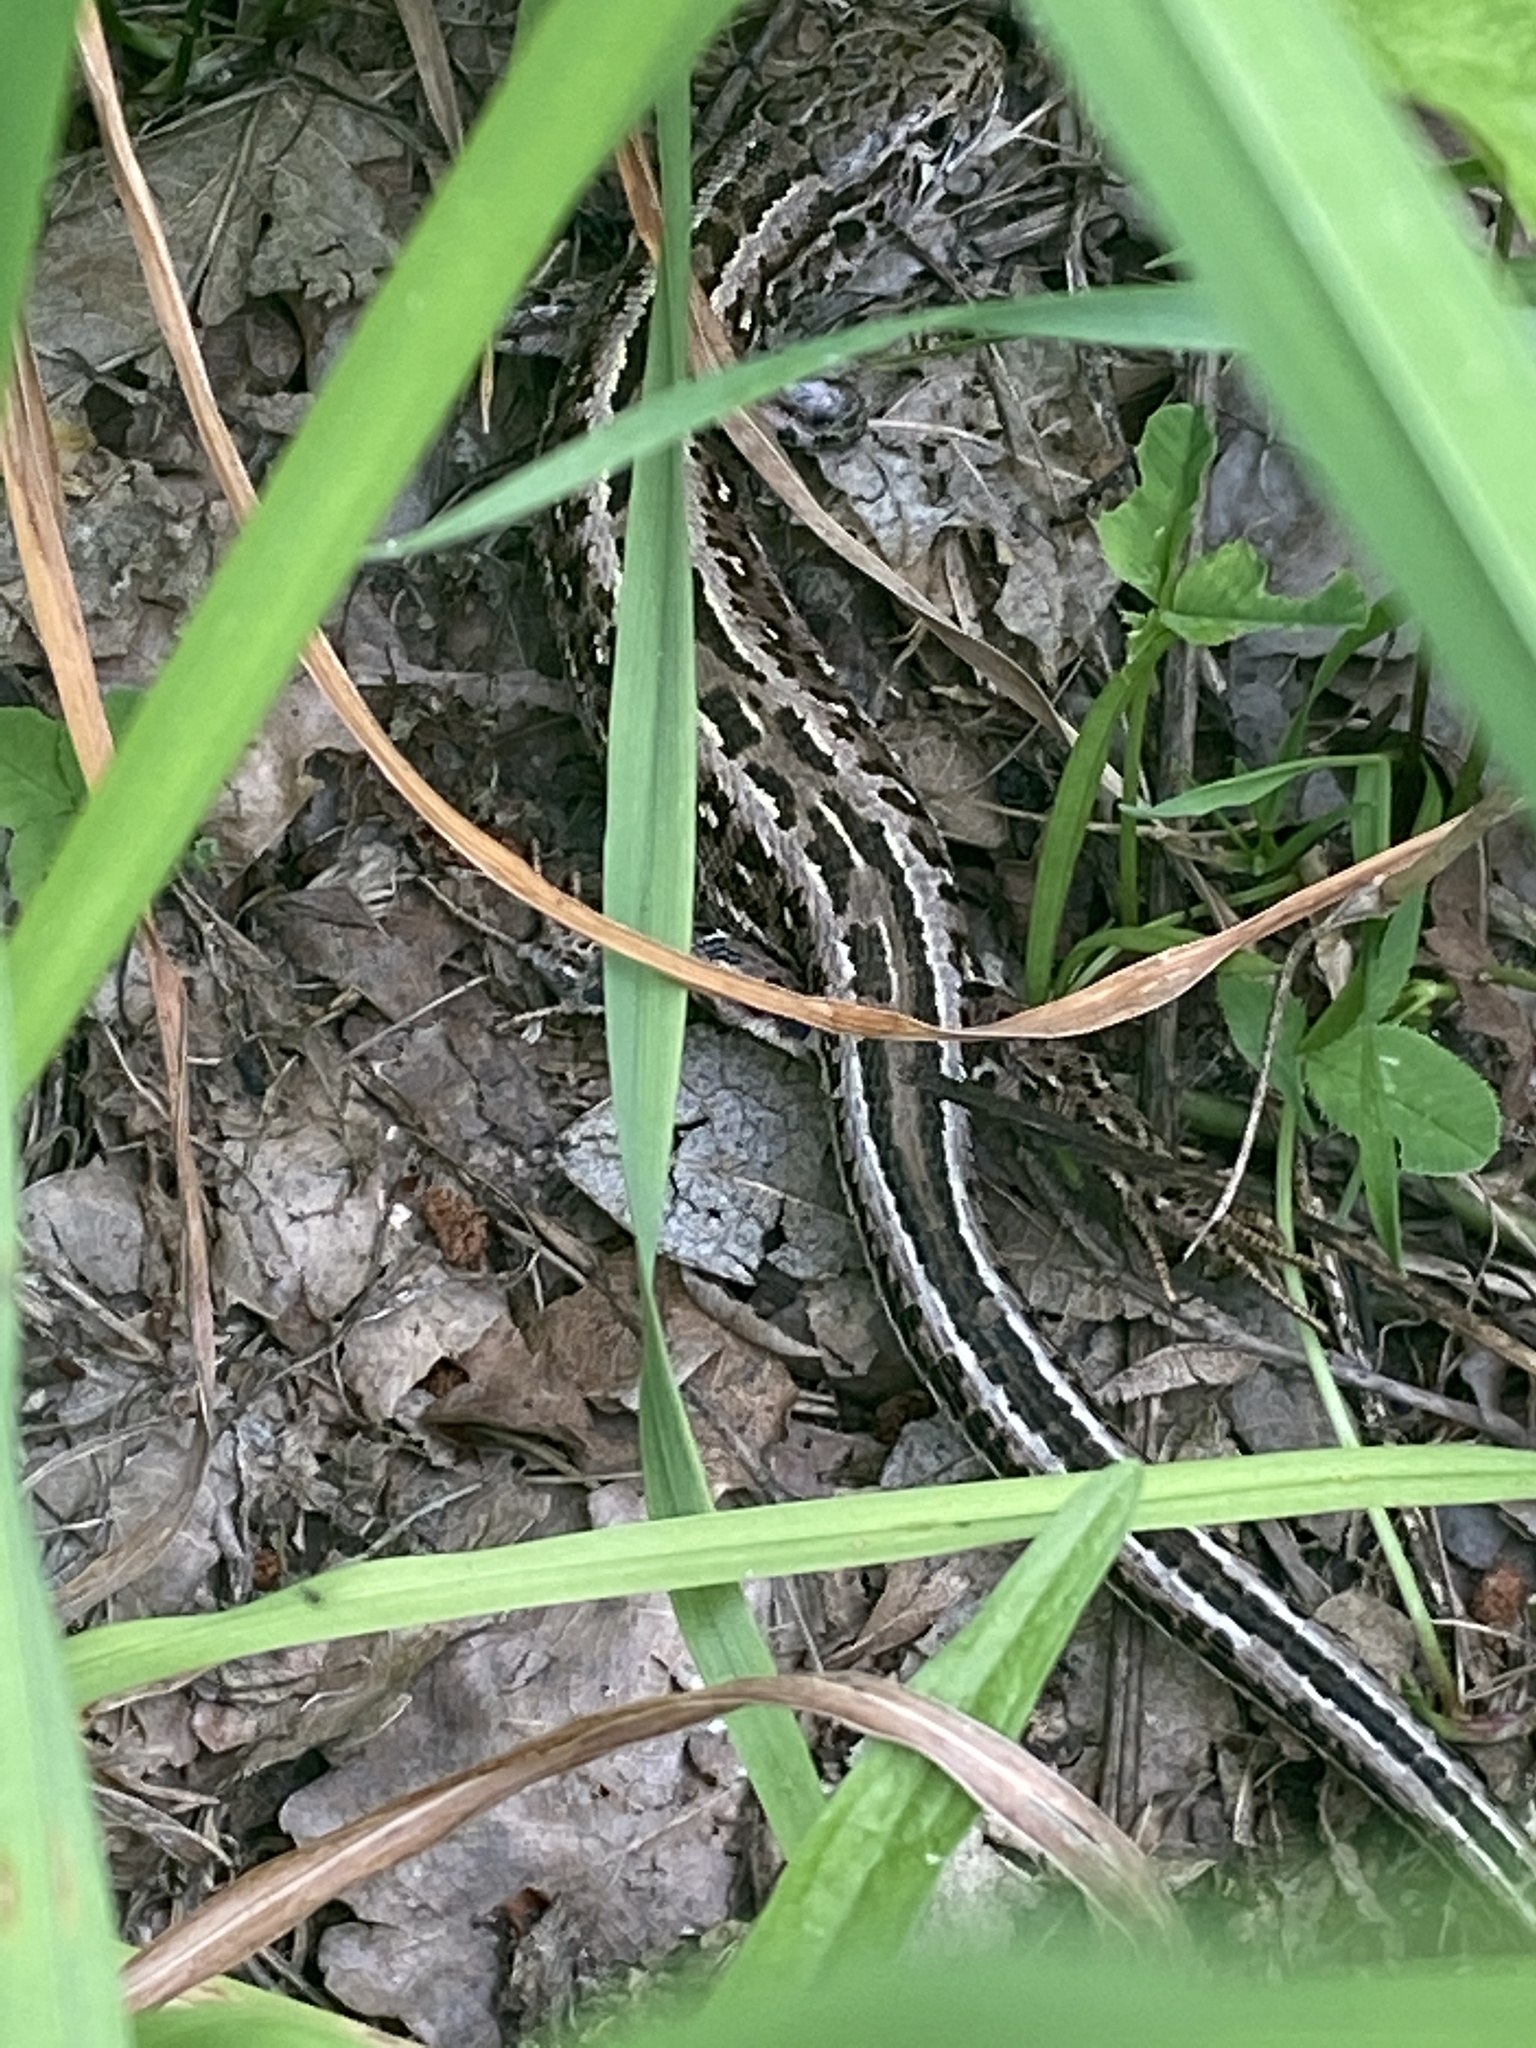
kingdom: Animalia
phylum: Chordata
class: Squamata
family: Lacertidae
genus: Lacerta
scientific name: Lacerta agilis
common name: Sand lizard
